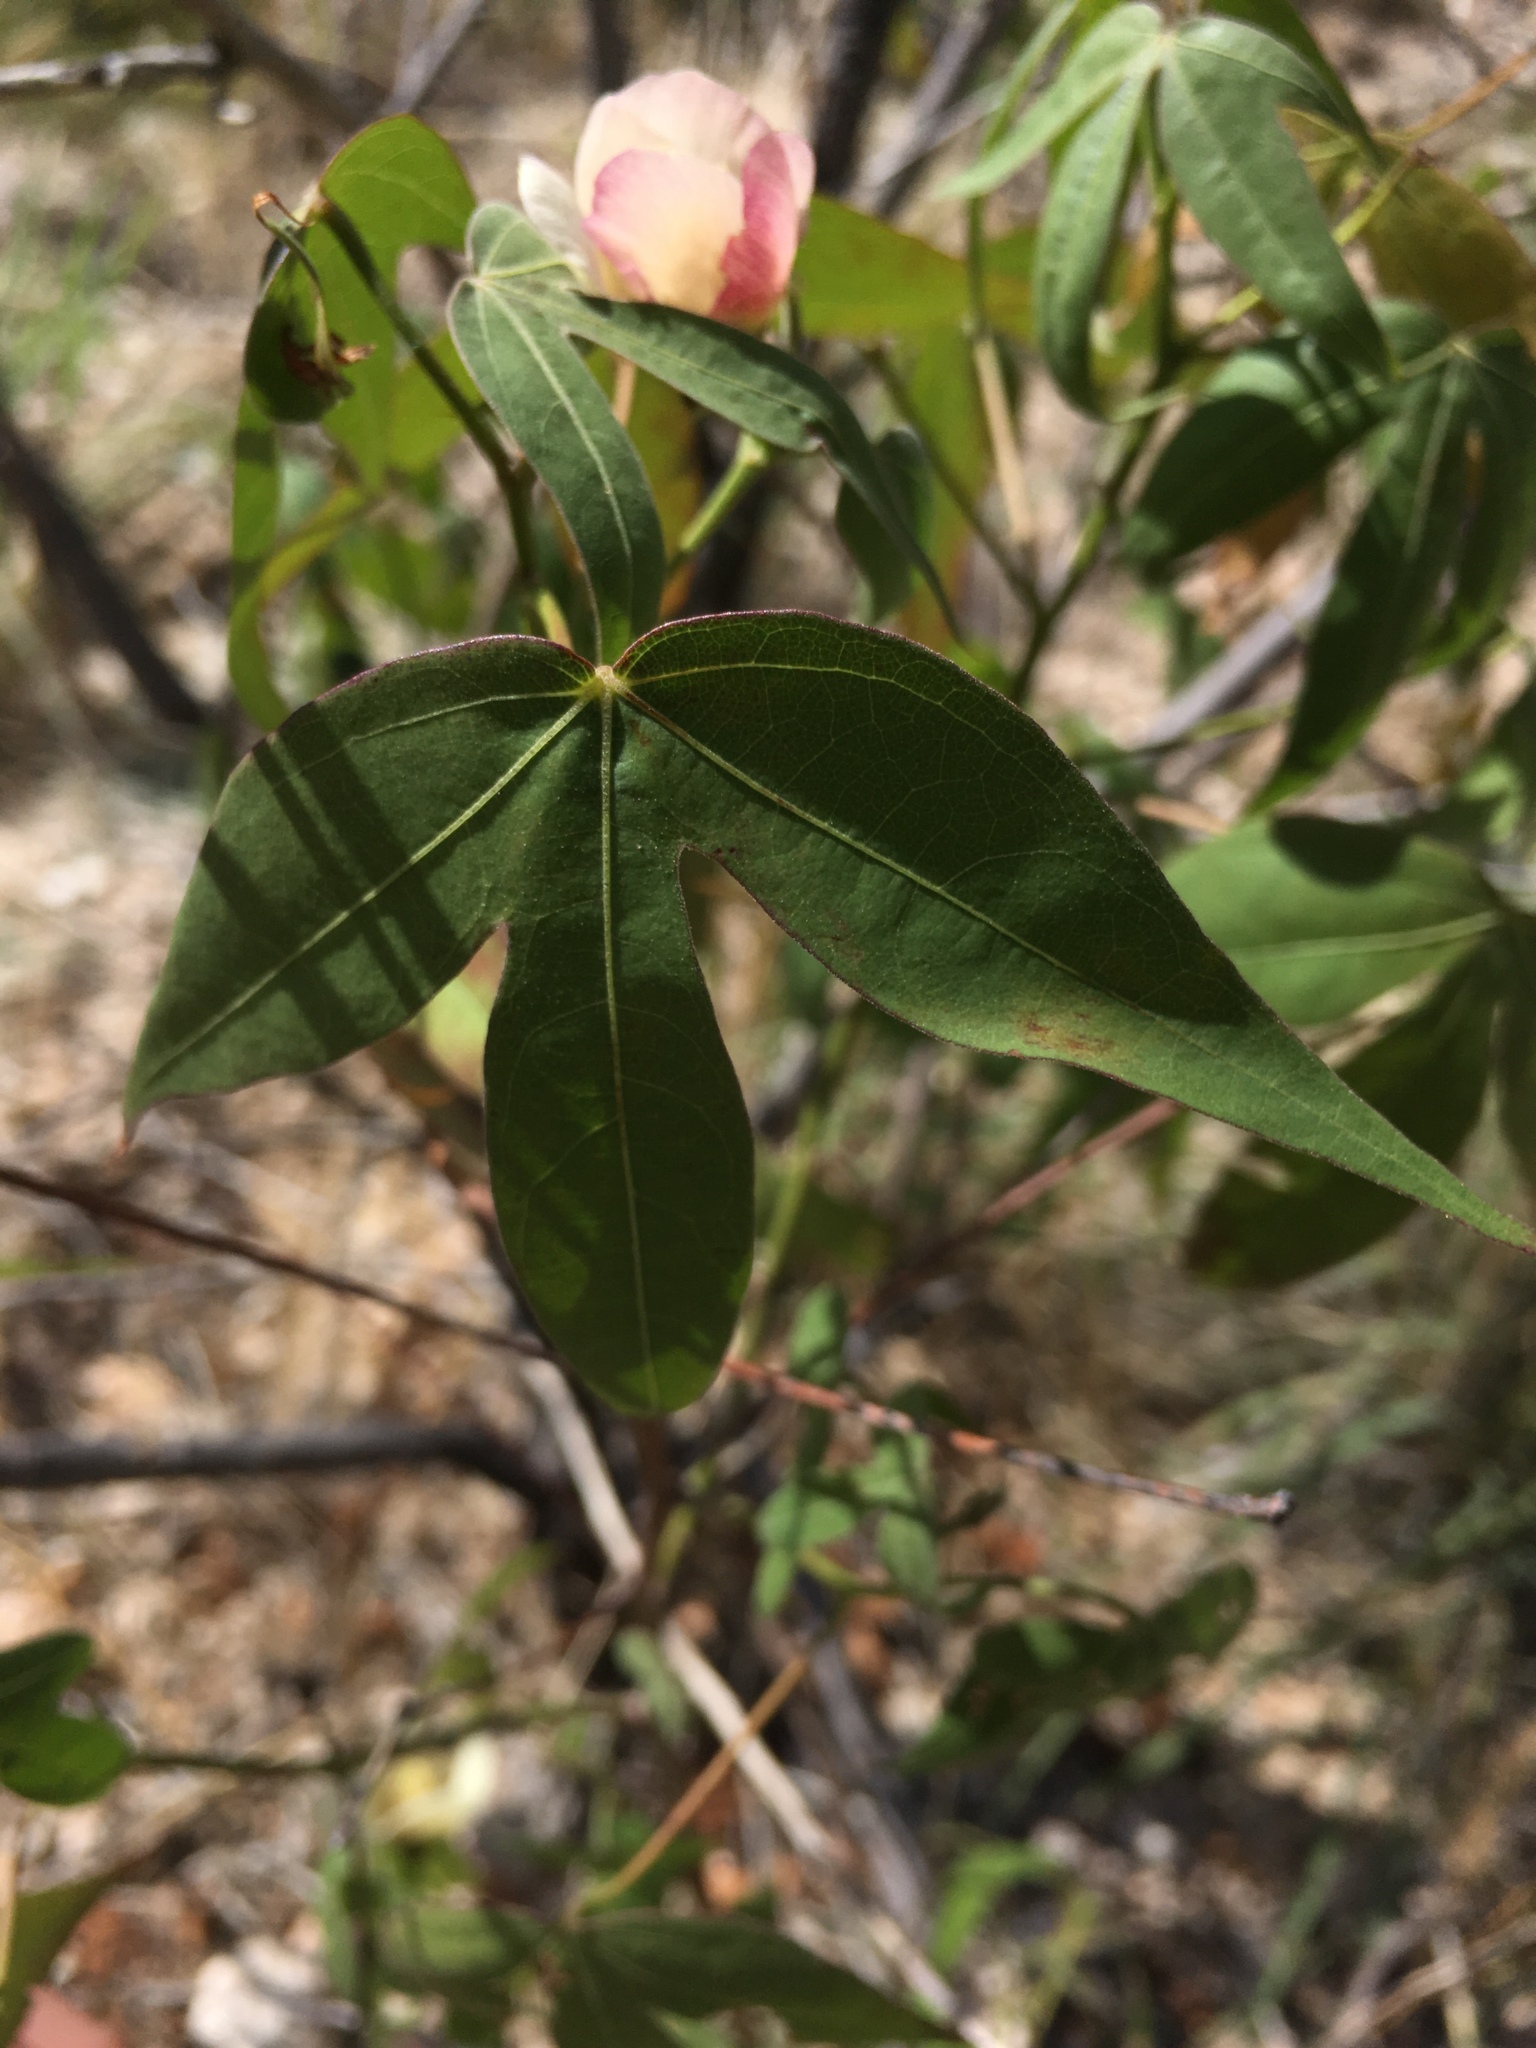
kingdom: Plantae
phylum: Tracheophyta
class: Magnoliopsida
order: Malvales
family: Malvaceae
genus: Gossypium
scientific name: Gossypium thurberi
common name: Desert cotton
